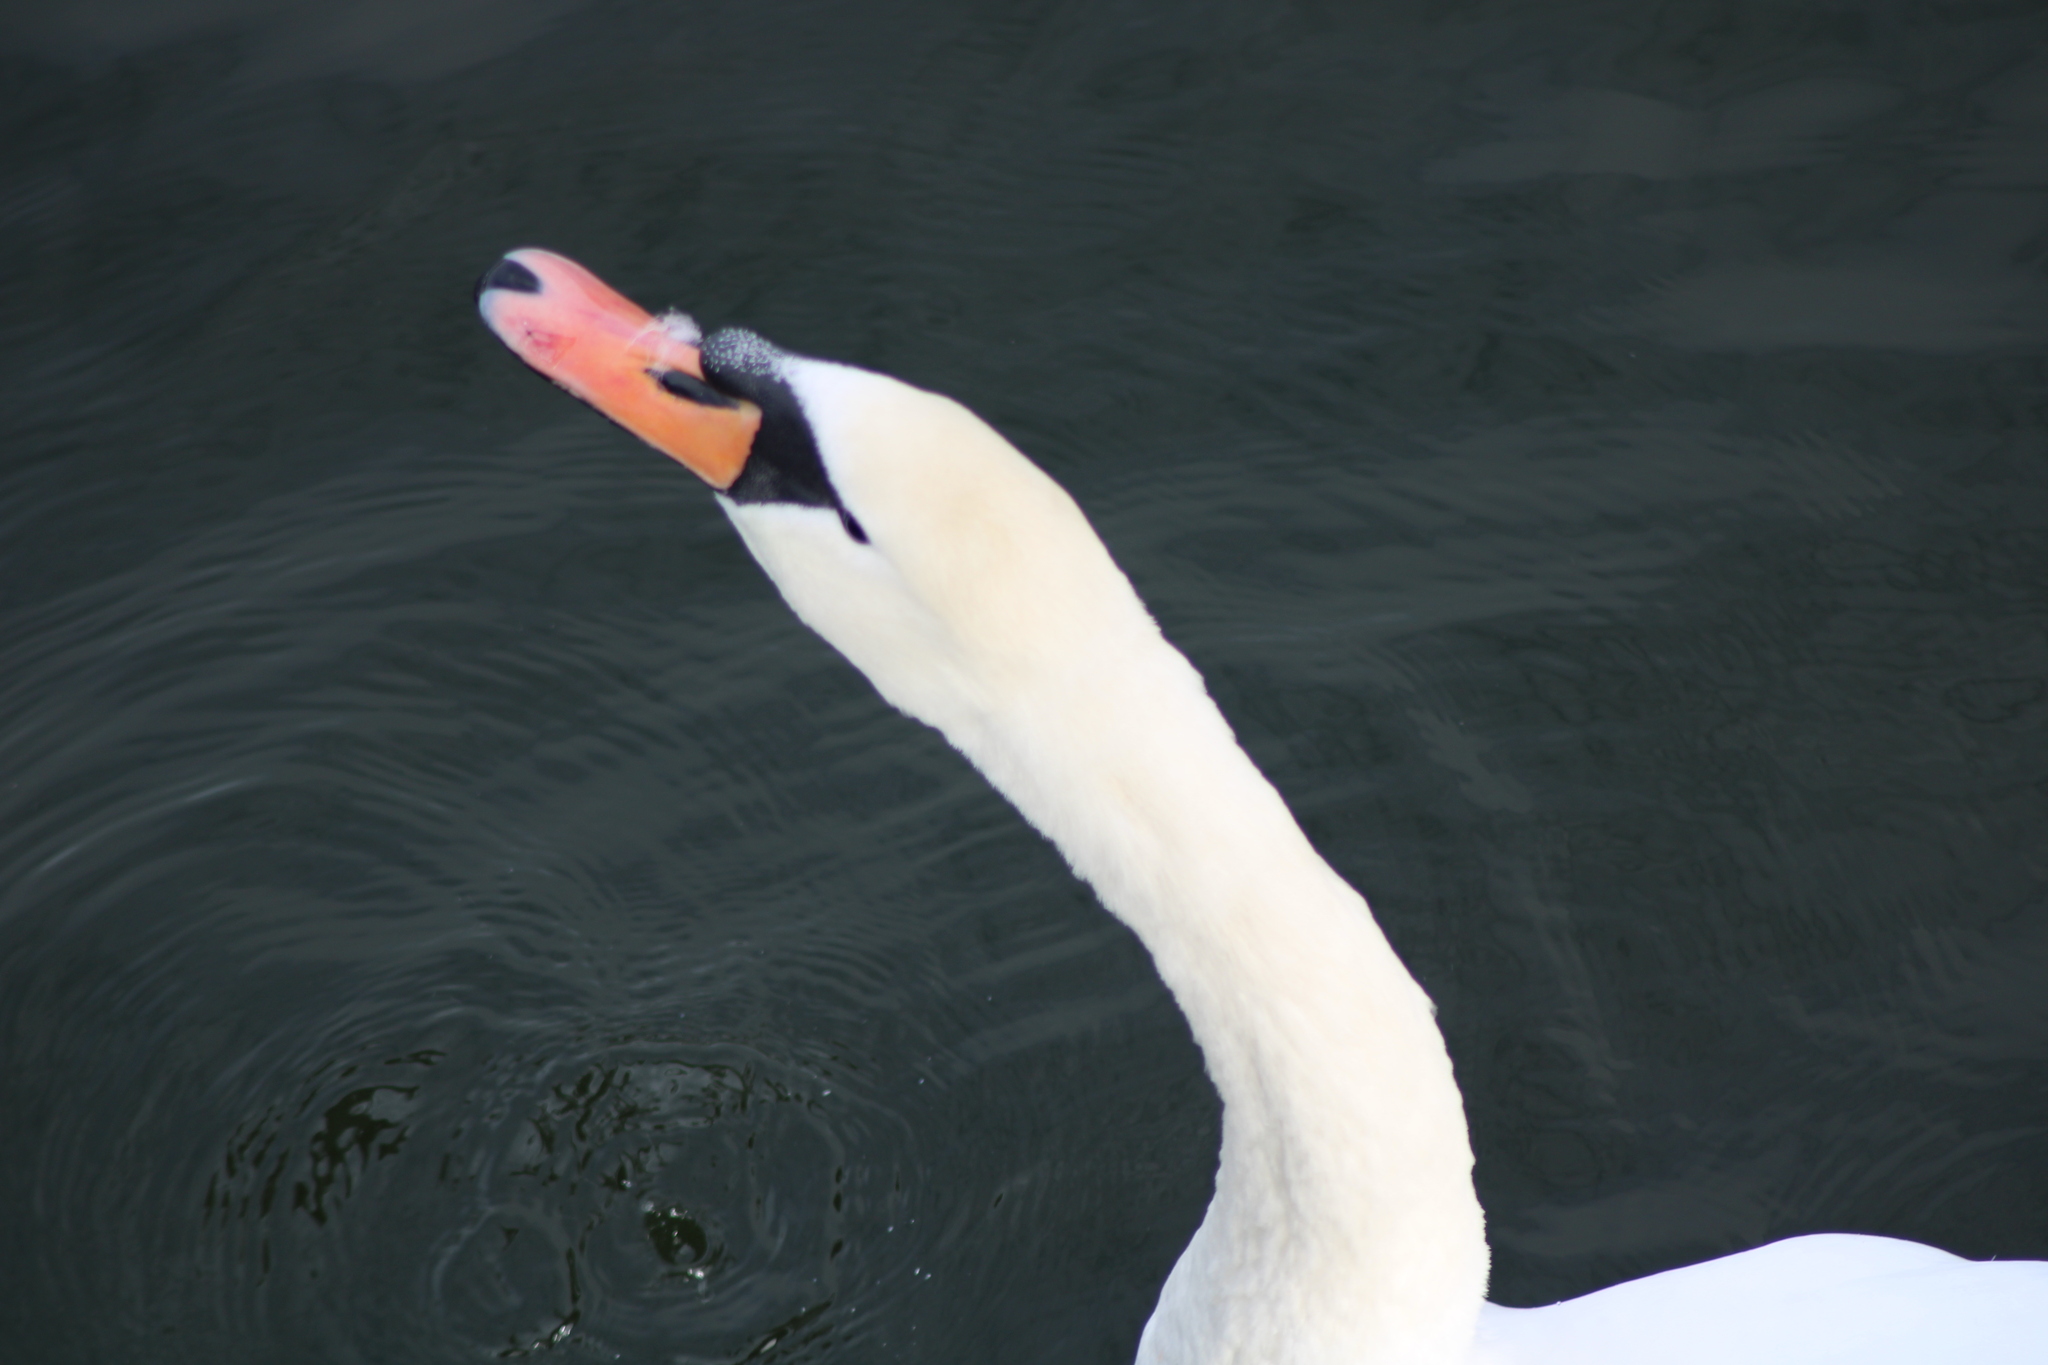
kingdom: Animalia
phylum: Chordata
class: Aves
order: Anseriformes
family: Anatidae
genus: Cygnus
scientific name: Cygnus olor
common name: Mute swan
